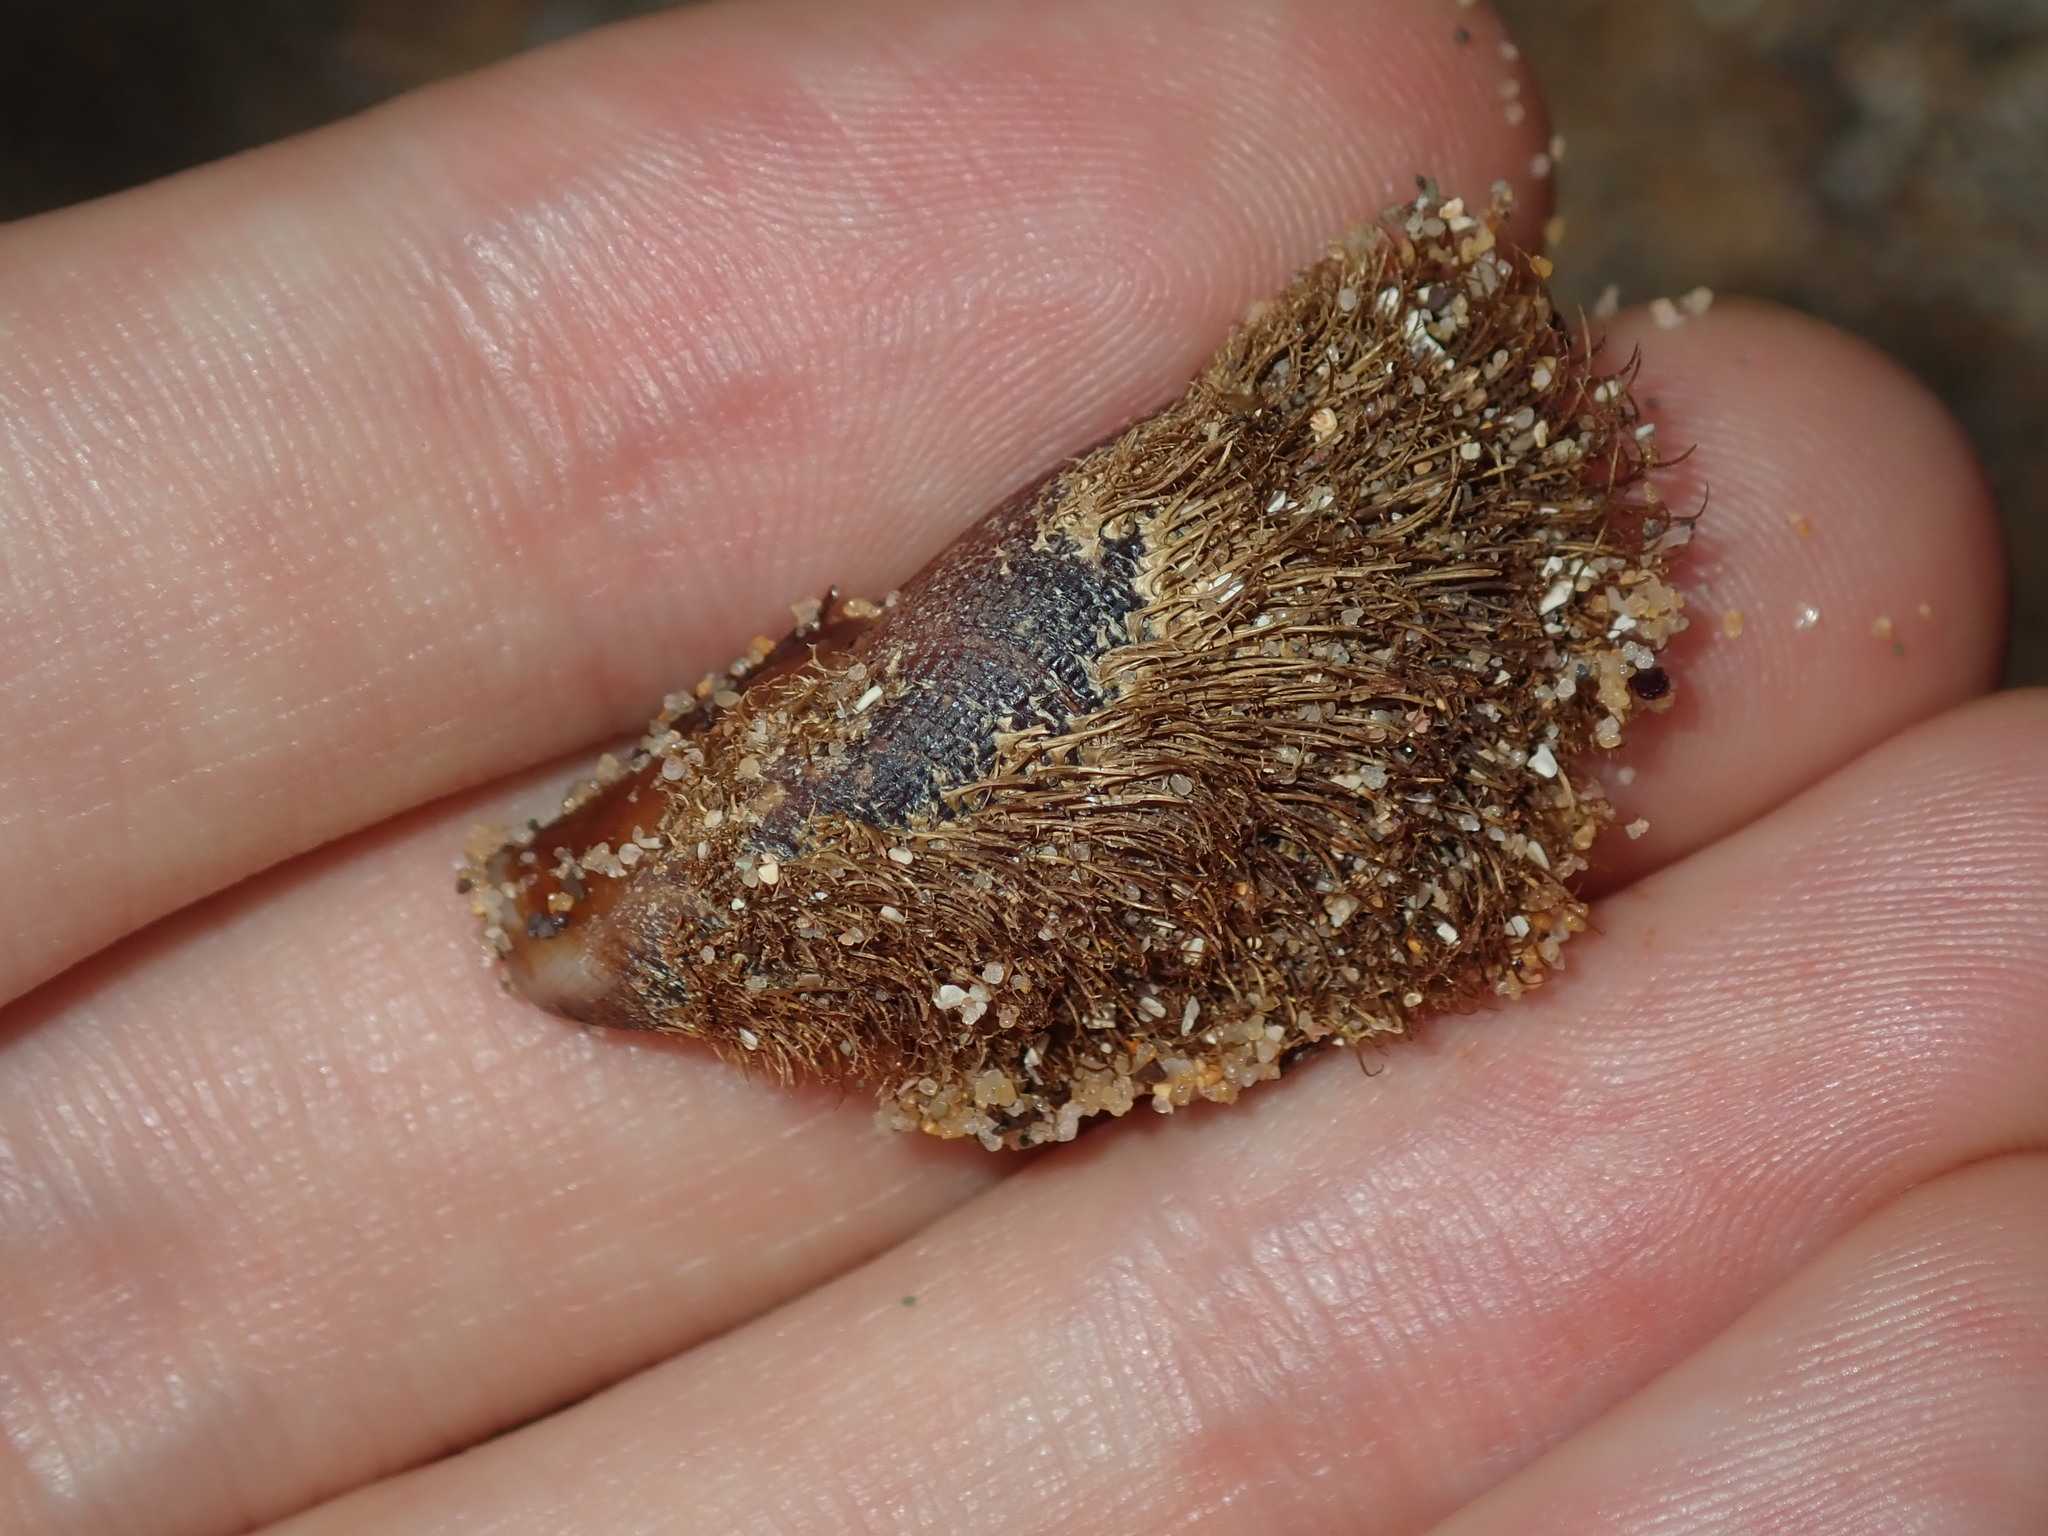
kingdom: Animalia
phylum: Mollusca
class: Bivalvia
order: Mytilida
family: Mytilidae
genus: Trichomya
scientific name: Trichomya hirsuta
